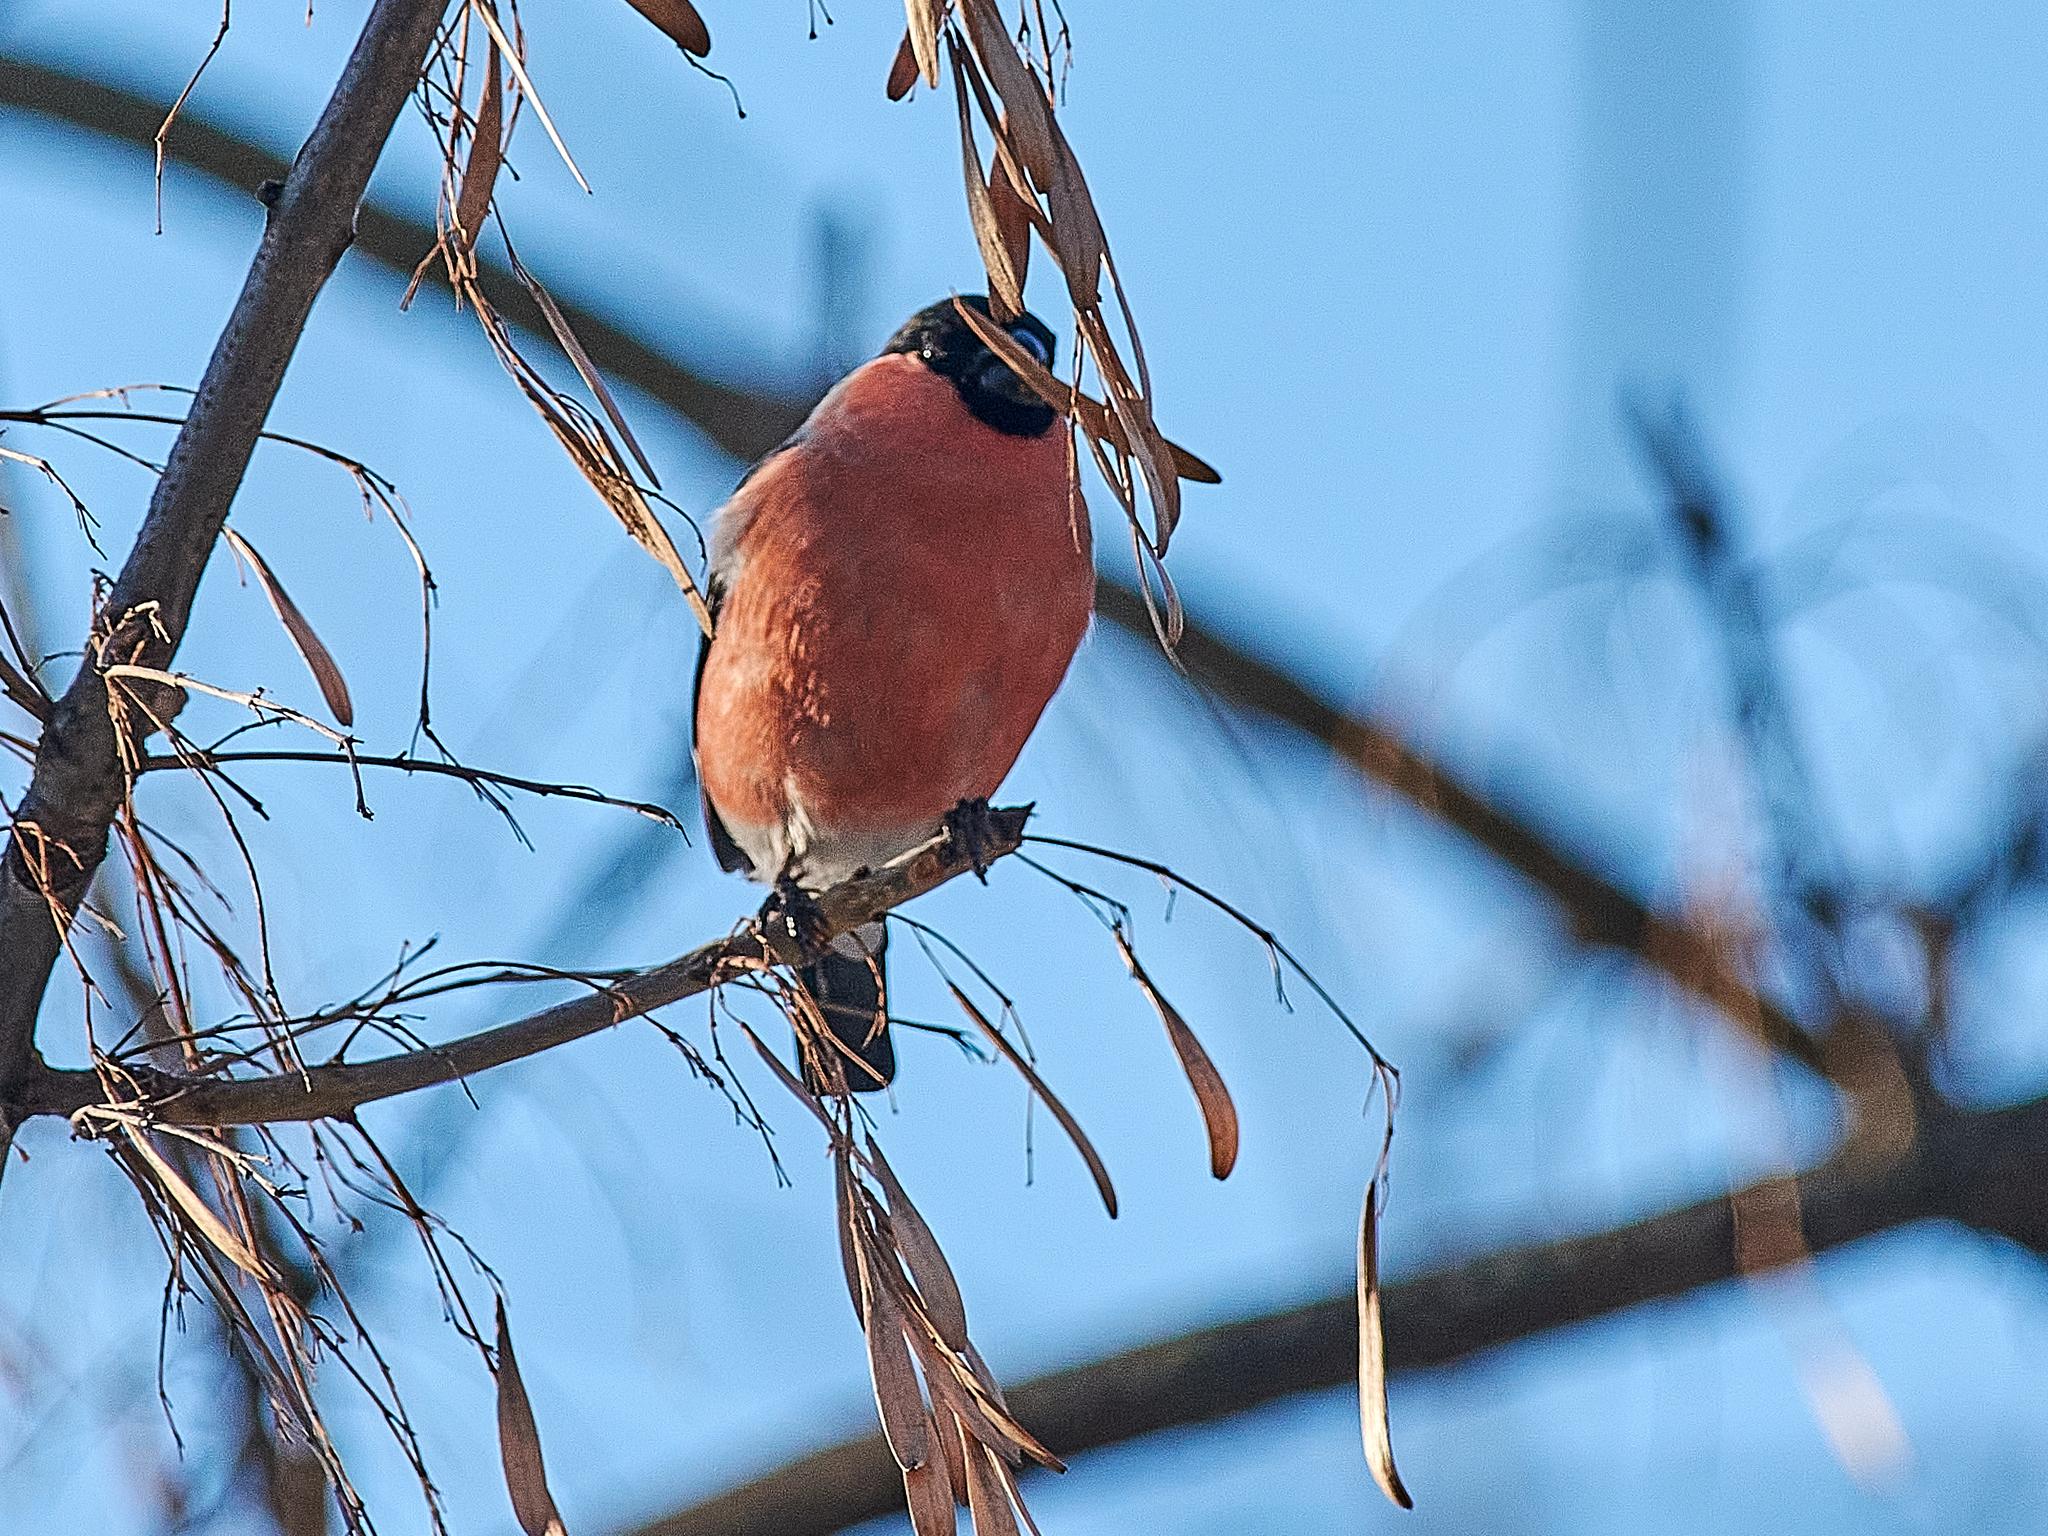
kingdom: Animalia
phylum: Chordata
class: Aves
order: Passeriformes
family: Fringillidae
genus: Pyrrhula
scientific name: Pyrrhula pyrrhula
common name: Eurasian bullfinch
